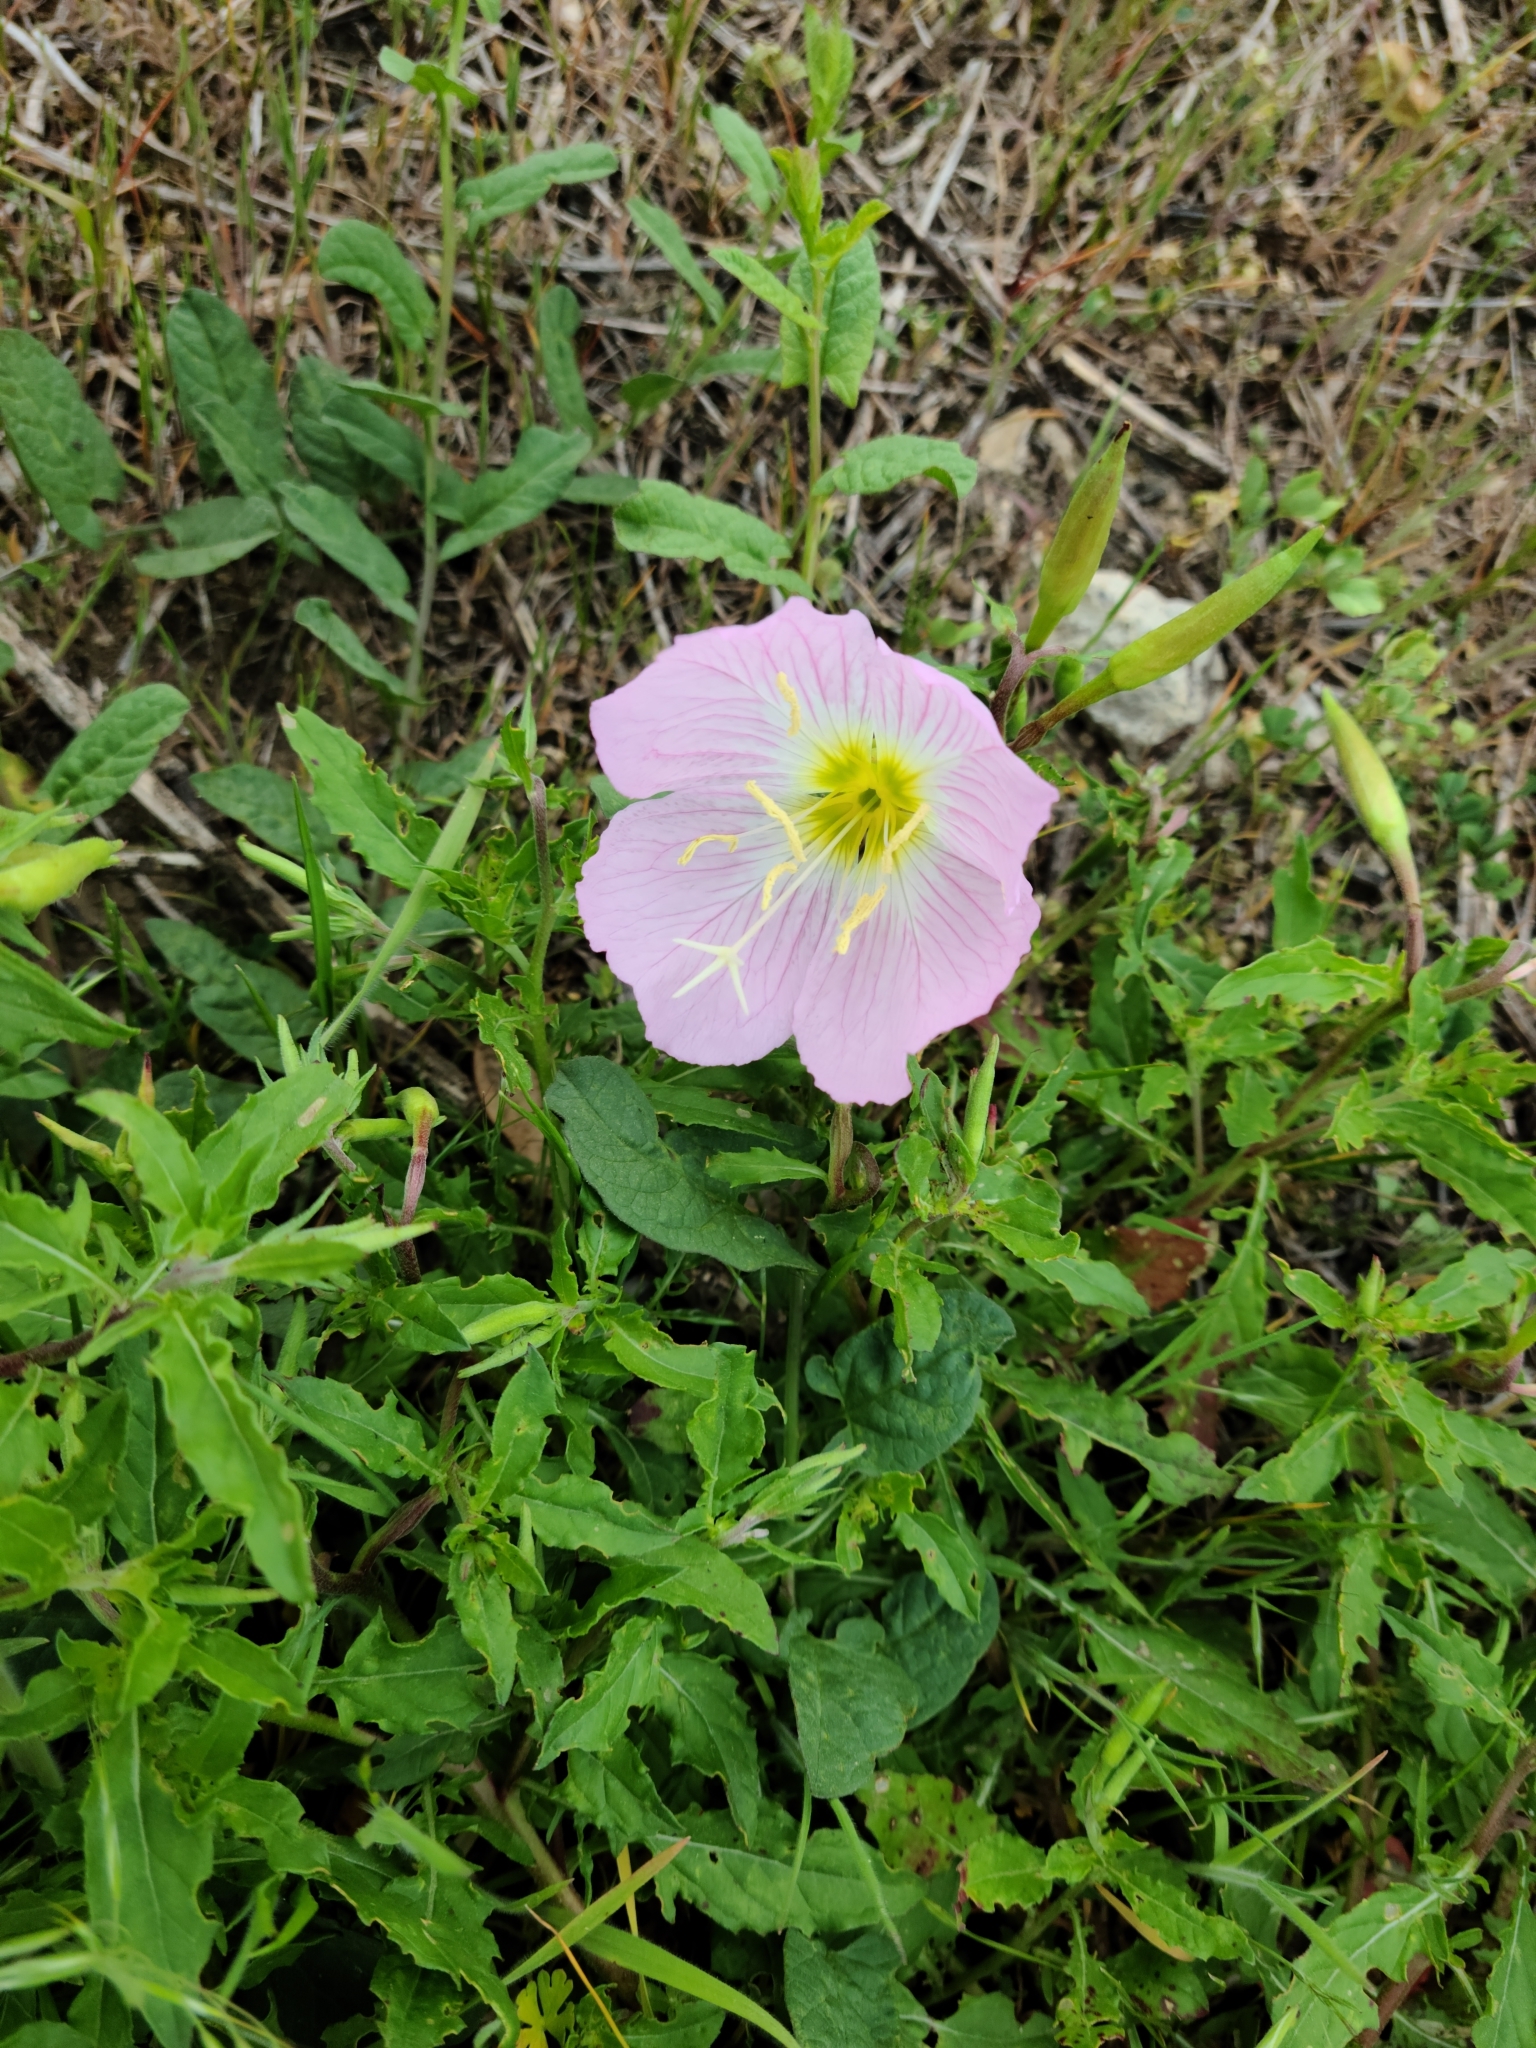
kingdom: Plantae
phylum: Tracheophyta
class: Magnoliopsida
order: Myrtales
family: Onagraceae
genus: Oenothera
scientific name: Oenothera speciosa
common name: White evening-primrose
